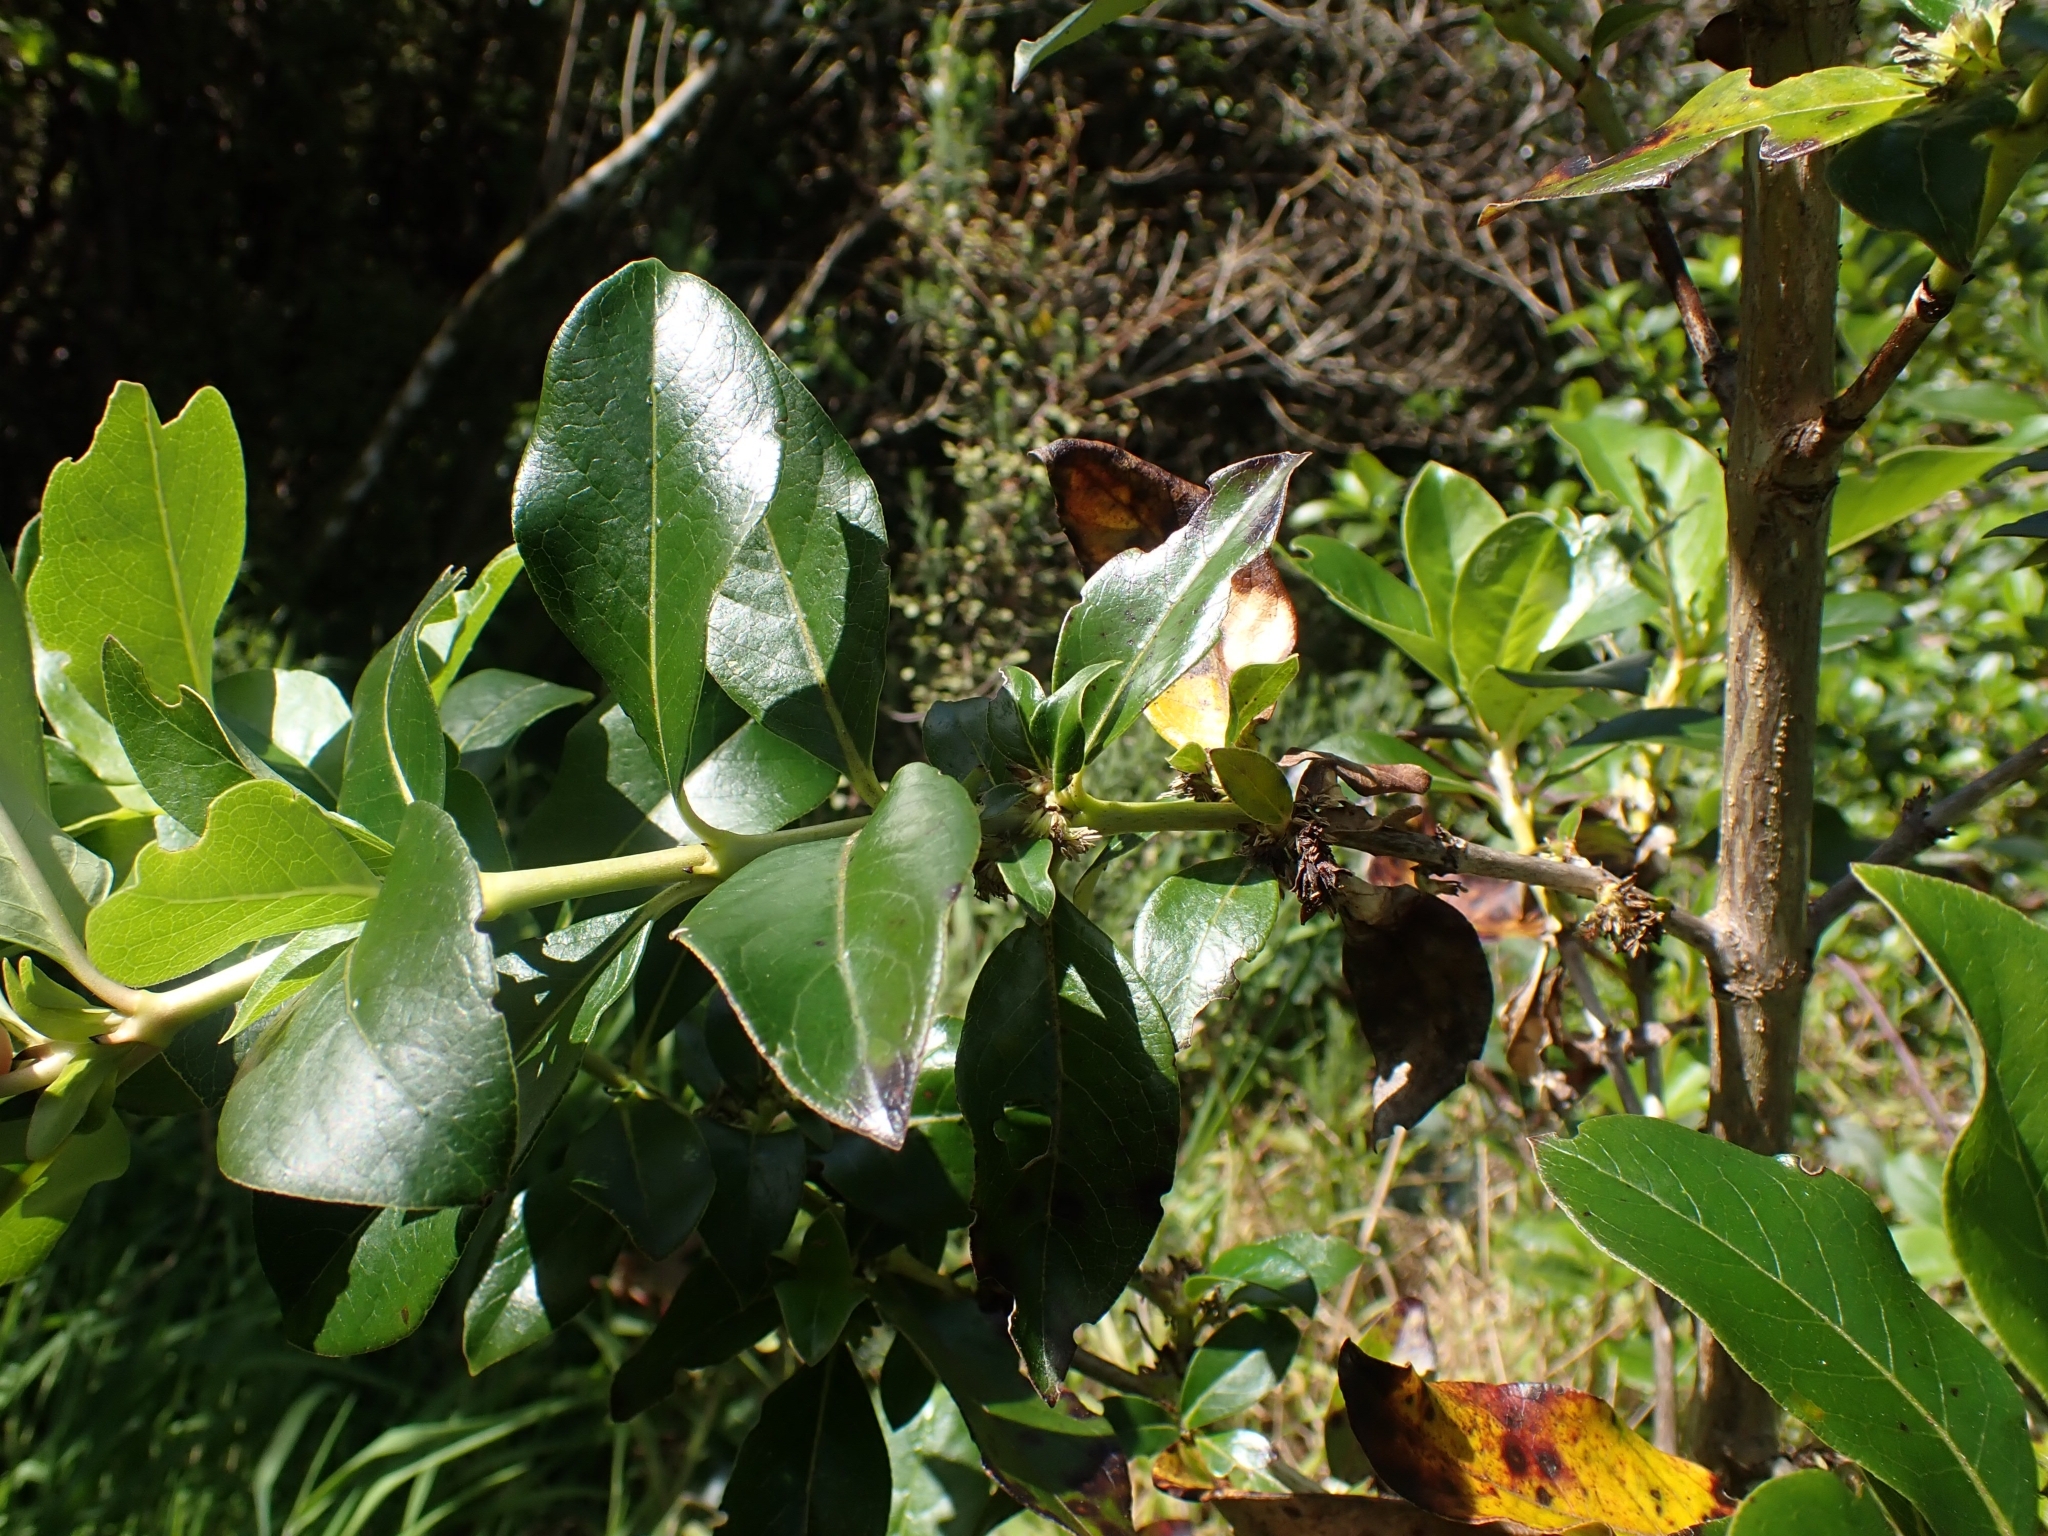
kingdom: Plantae
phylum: Tracheophyta
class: Magnoliopsida
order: Gentianales
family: Rubiaceae
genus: Coprosma
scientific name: Coprosma robusta
